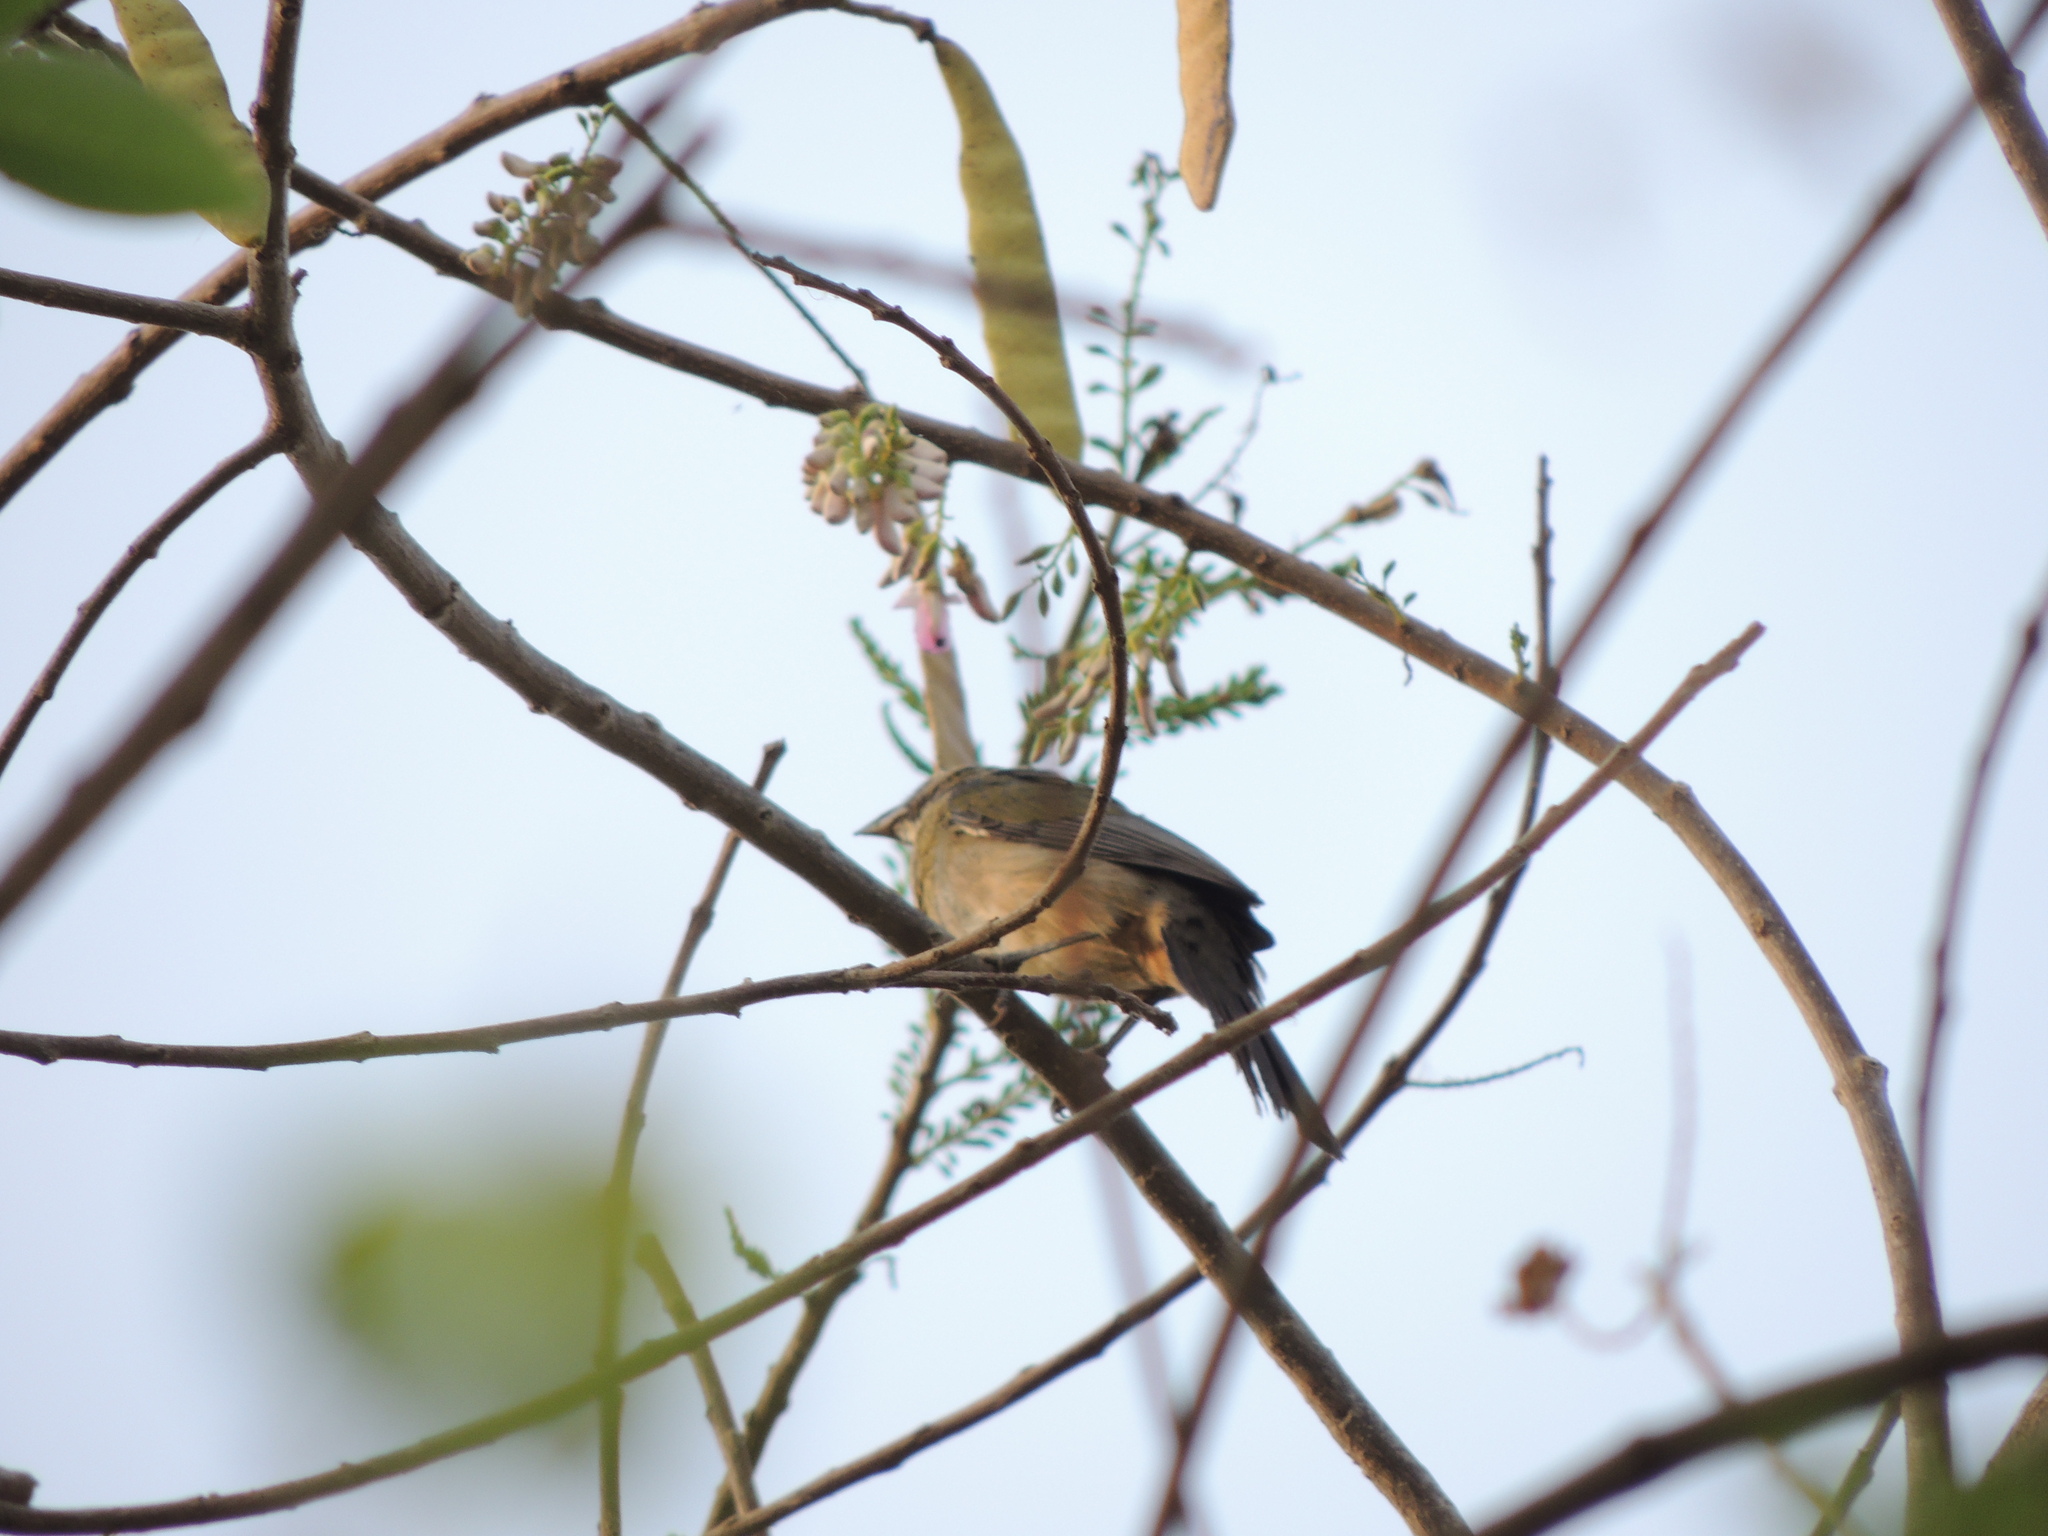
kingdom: Animalia
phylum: Chordata
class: Aves
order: Passeriformes
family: Thraupidae
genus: Saltator
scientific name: Saltator olivascens
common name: Caribbean grey saltator
